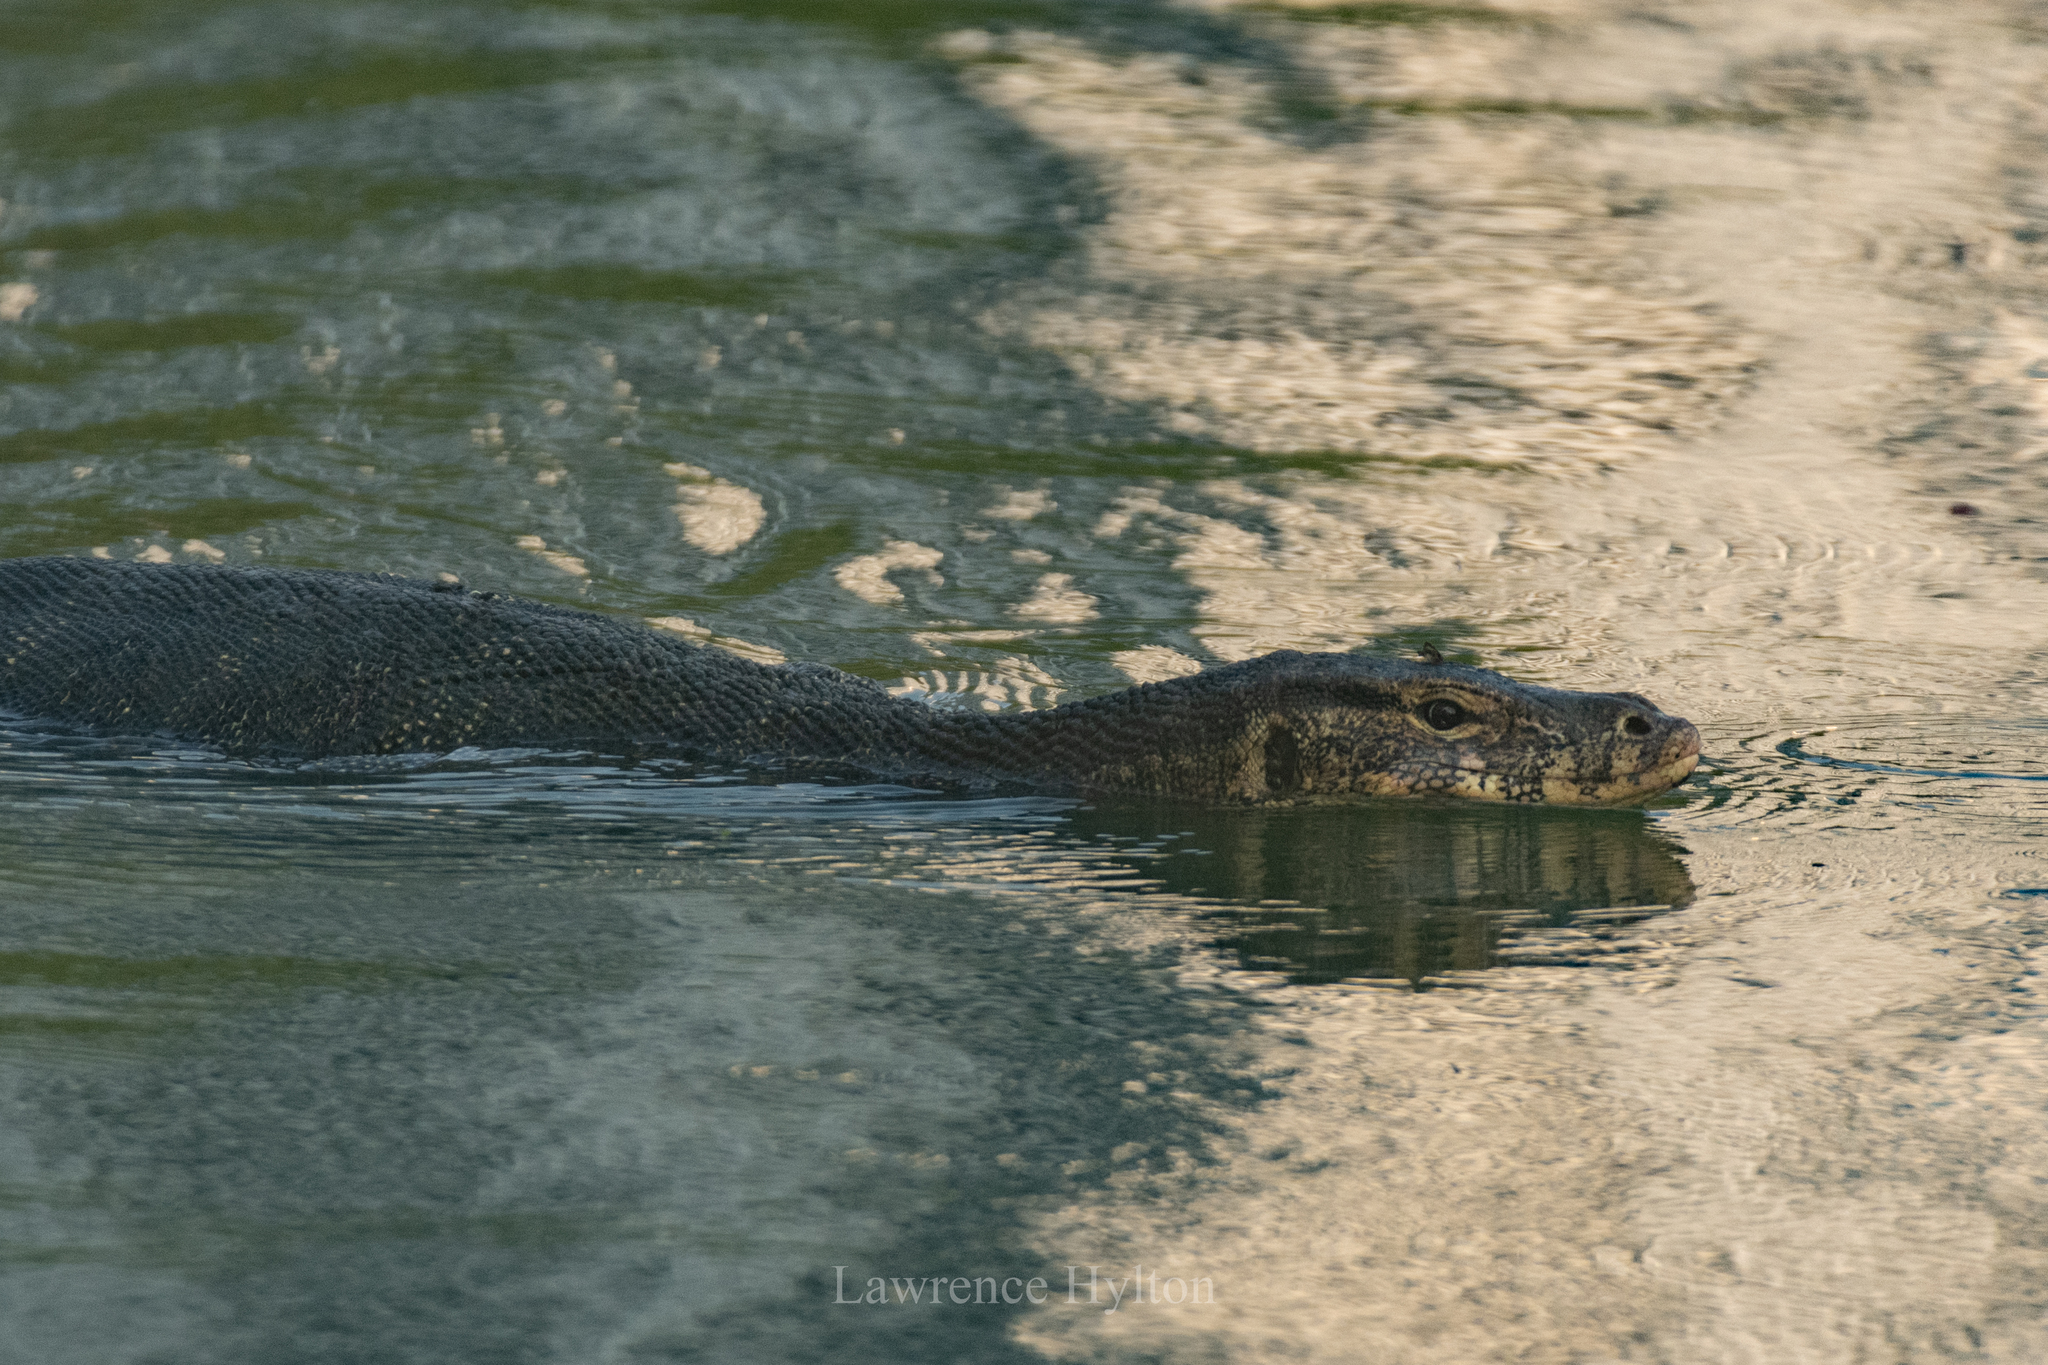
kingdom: Animalia
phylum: Chordata
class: Squamata
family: Varanidae
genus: Varanus
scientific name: Varanus salvator
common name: Common water monitor
